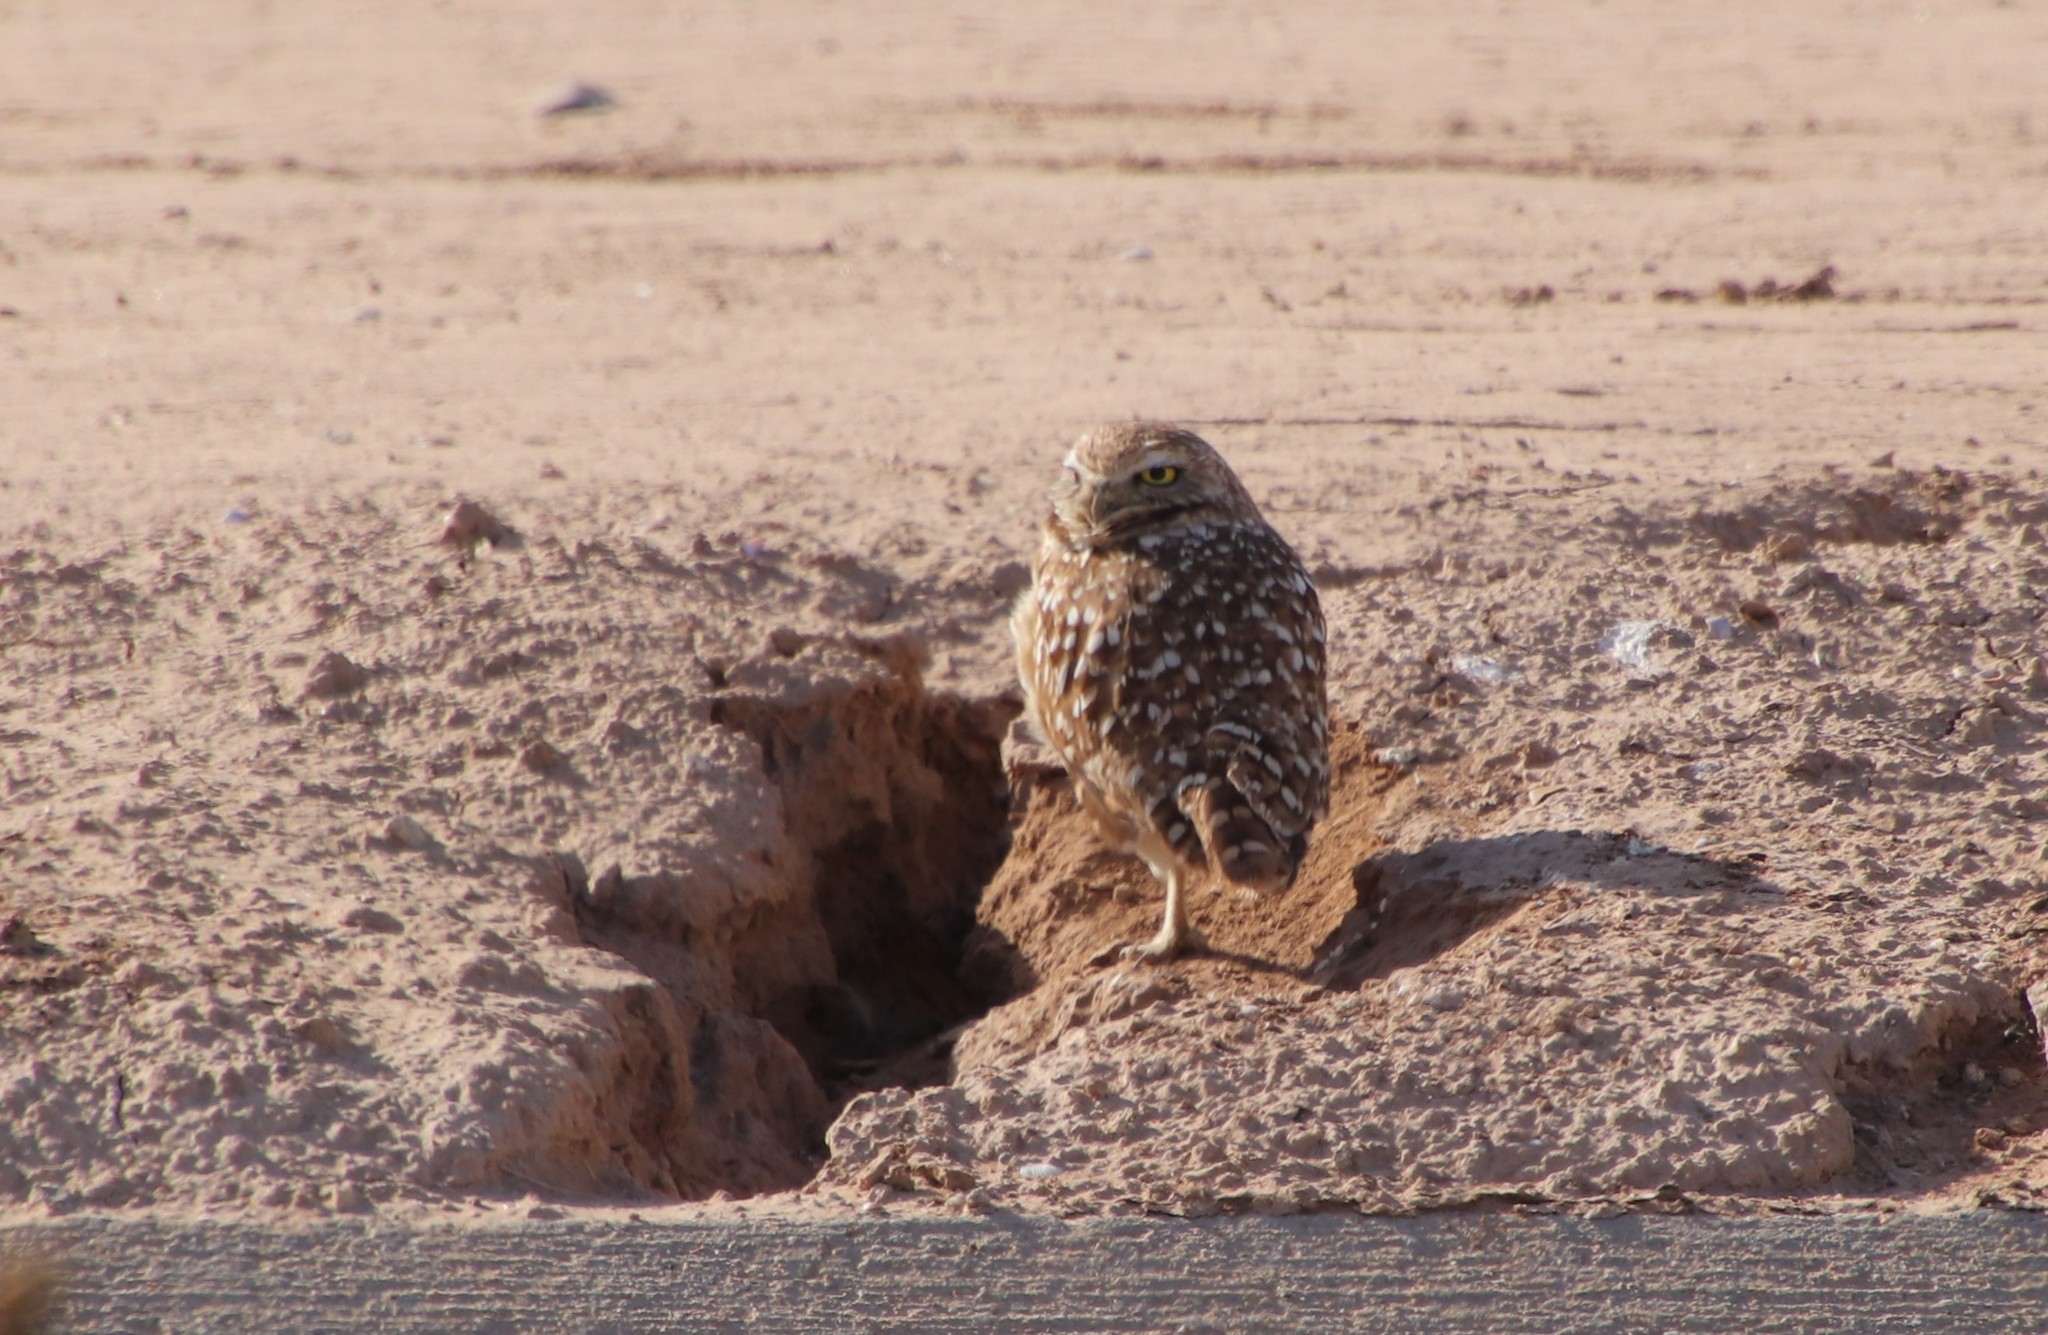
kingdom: Animalia
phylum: Chordata
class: Aves
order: Strigiformes
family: Strigidae
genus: Athene
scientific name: Athene cunicularia
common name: Burrowing owl
